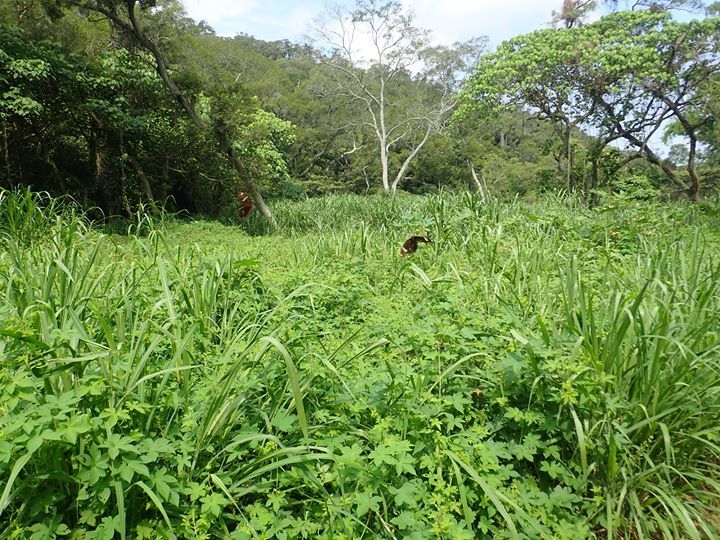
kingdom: Animalia
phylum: Arthropoda
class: Insecta
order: Lepidoptera
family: Nymphalidae
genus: Hypolimnas
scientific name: Hypolimnas bolina
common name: Great eggfly
